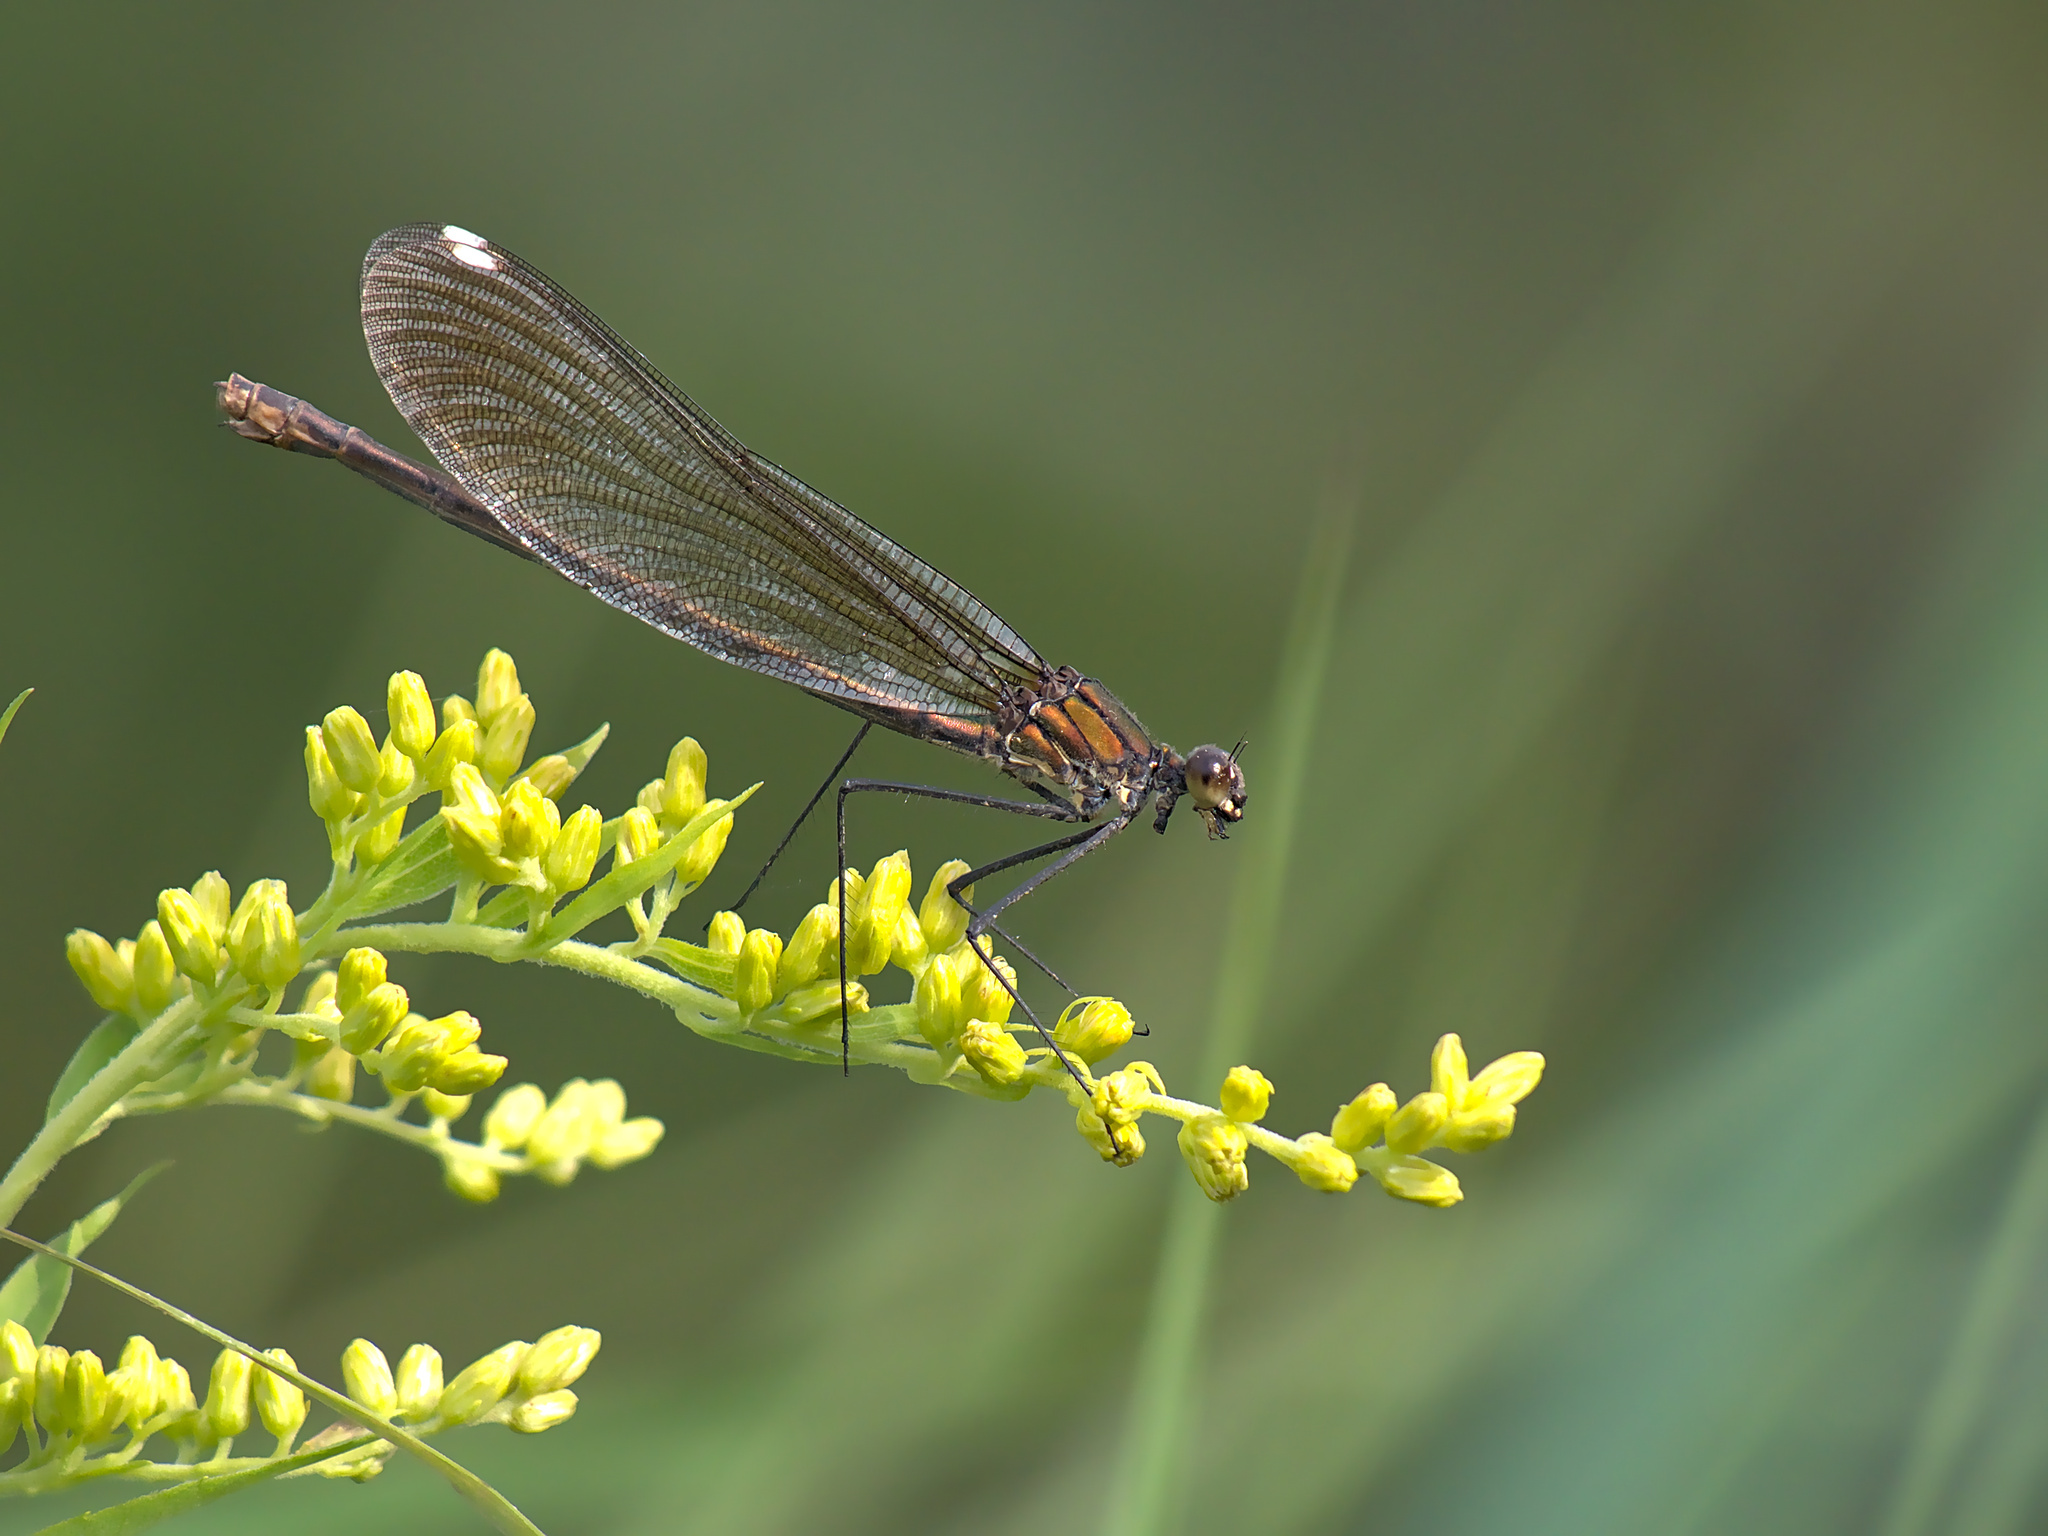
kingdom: Animalia
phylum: Arthropoda
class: Insecta
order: Odonata
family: Calopterygidae
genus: Calopteryx
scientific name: Calopteryx aequabilis
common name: River jewelwing
